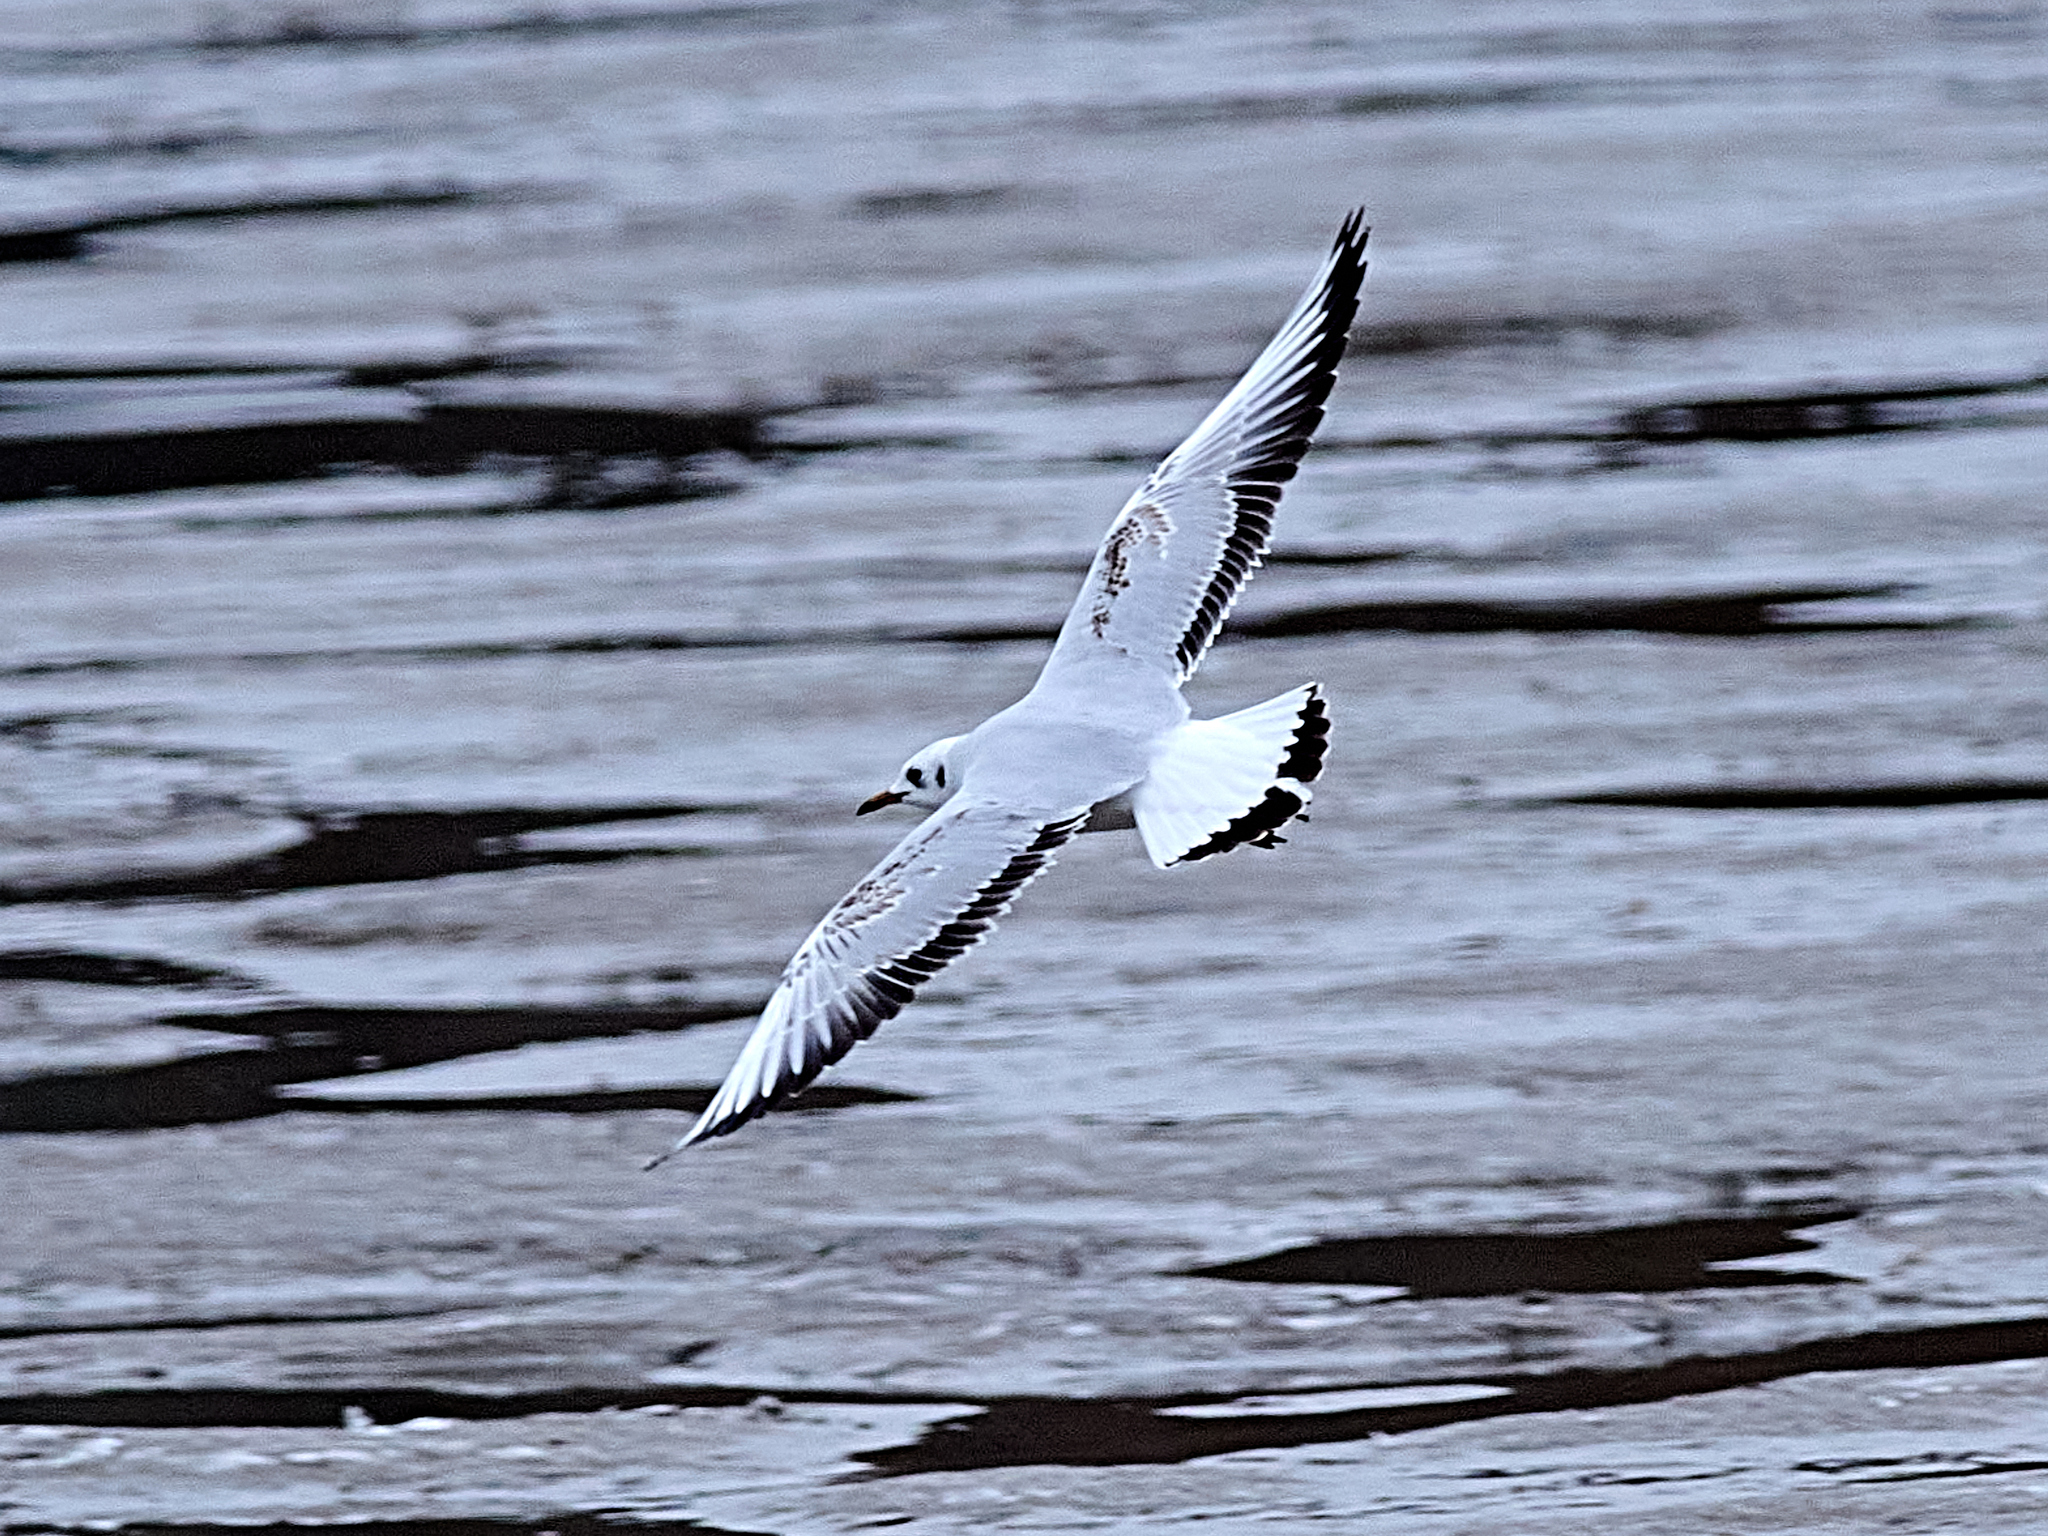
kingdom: Animalia
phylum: Chordata
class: Aves
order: Charadriiformes
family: Laridae
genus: Chroicocephalus
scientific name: Chroicocephalus ridibundus
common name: Black-headed gull
